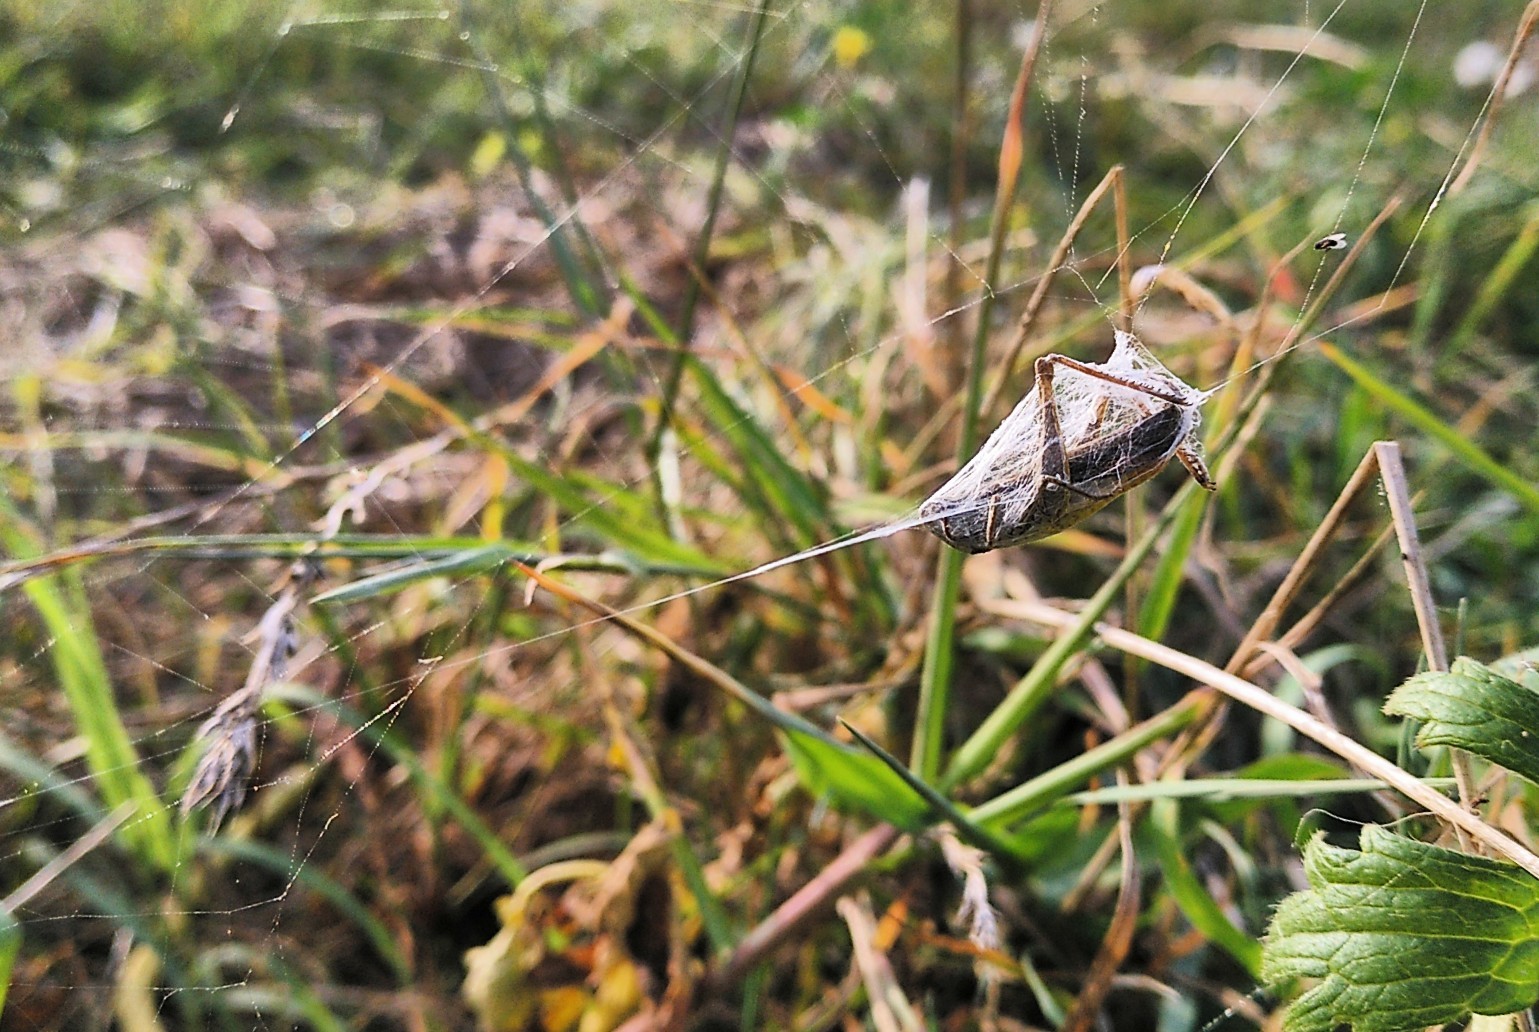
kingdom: Animalia
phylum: Arthropoda
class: Arachnida
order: Araneae
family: Araneidae
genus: Argiope
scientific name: Argiope bruennichi
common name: Wasp spider
